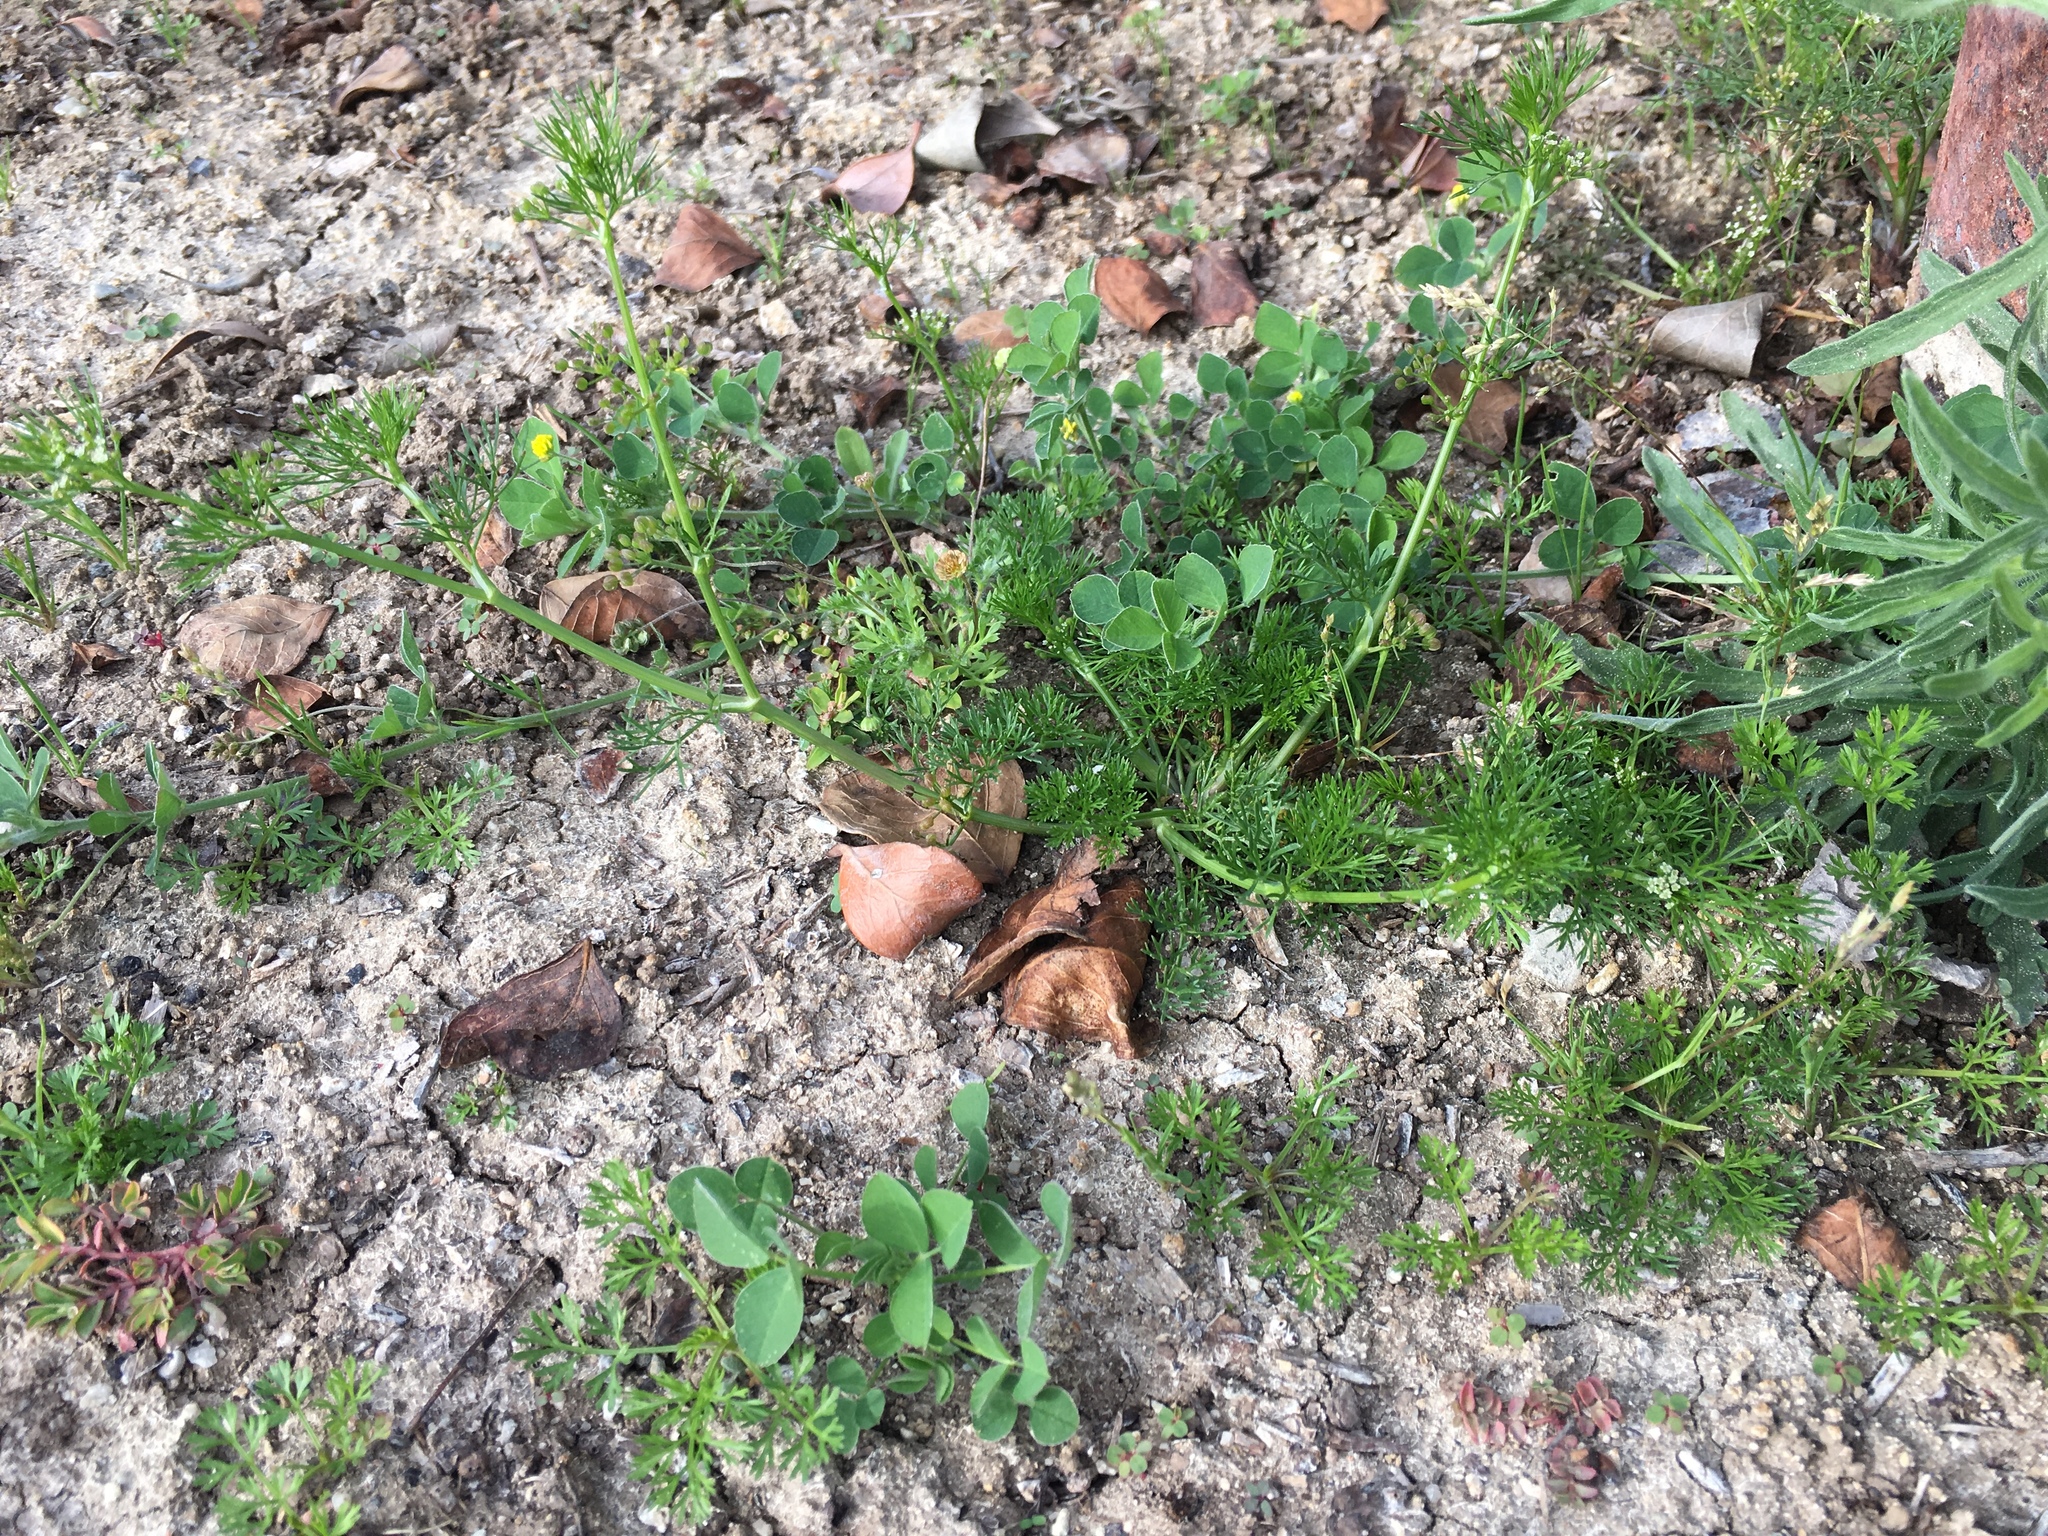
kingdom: Plantae
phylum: Tracheophyta
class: Magnoliopsida
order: Apiales
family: Apiaceae
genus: Cyclospermum
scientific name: Cyclospermum leptophyllum
